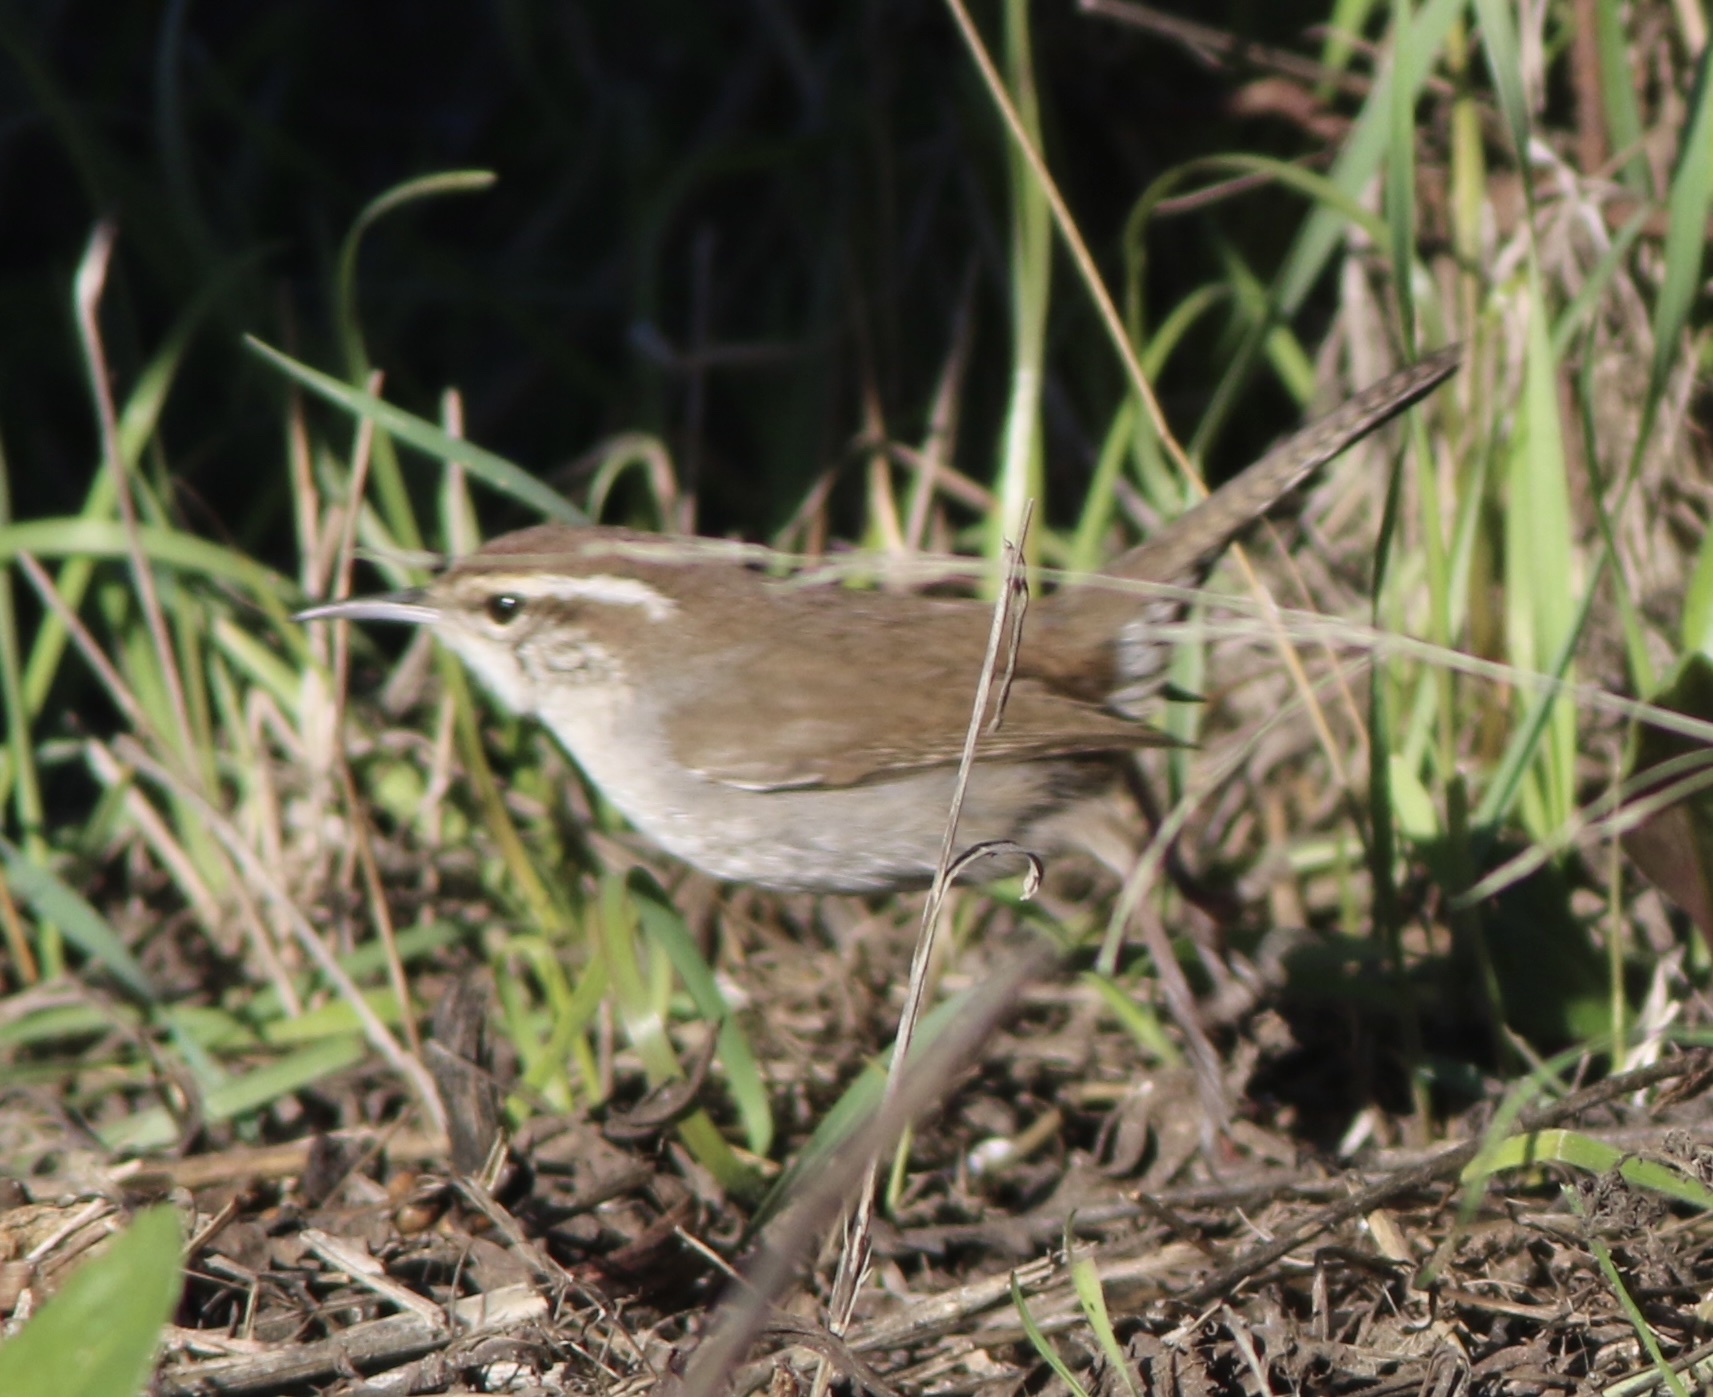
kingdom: Animalia
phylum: Chordata
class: Aves
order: Passeriformes
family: Troglodytidae
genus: Thryomanes
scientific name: Thryomanes bewickii
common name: Bewick's wren
